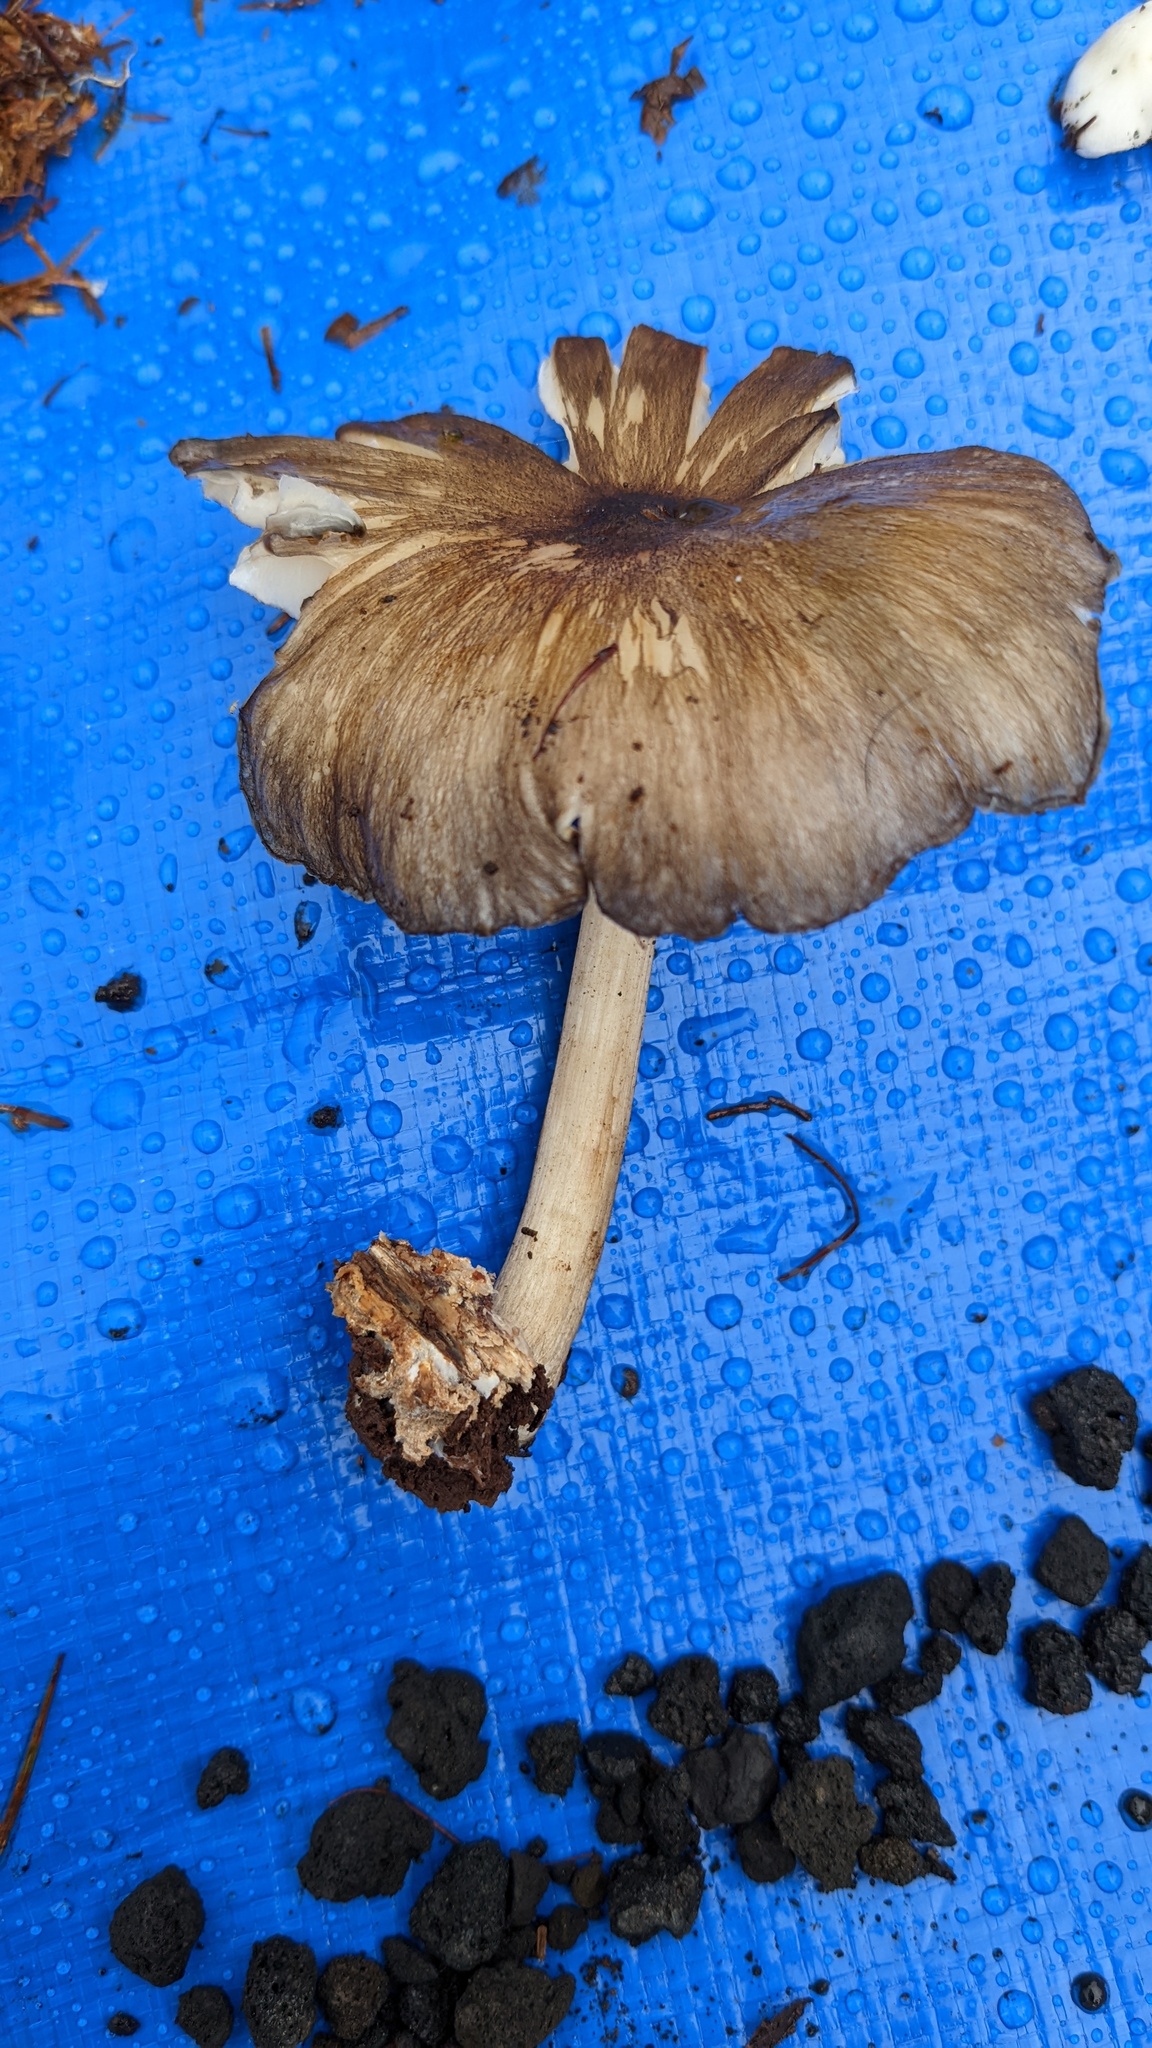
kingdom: Fungi
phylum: Basidiomycota
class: Agaricomycetes
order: Agaricales
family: Tricholomataceae
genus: Megacollybia
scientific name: Megacollybia clitocyboidea
